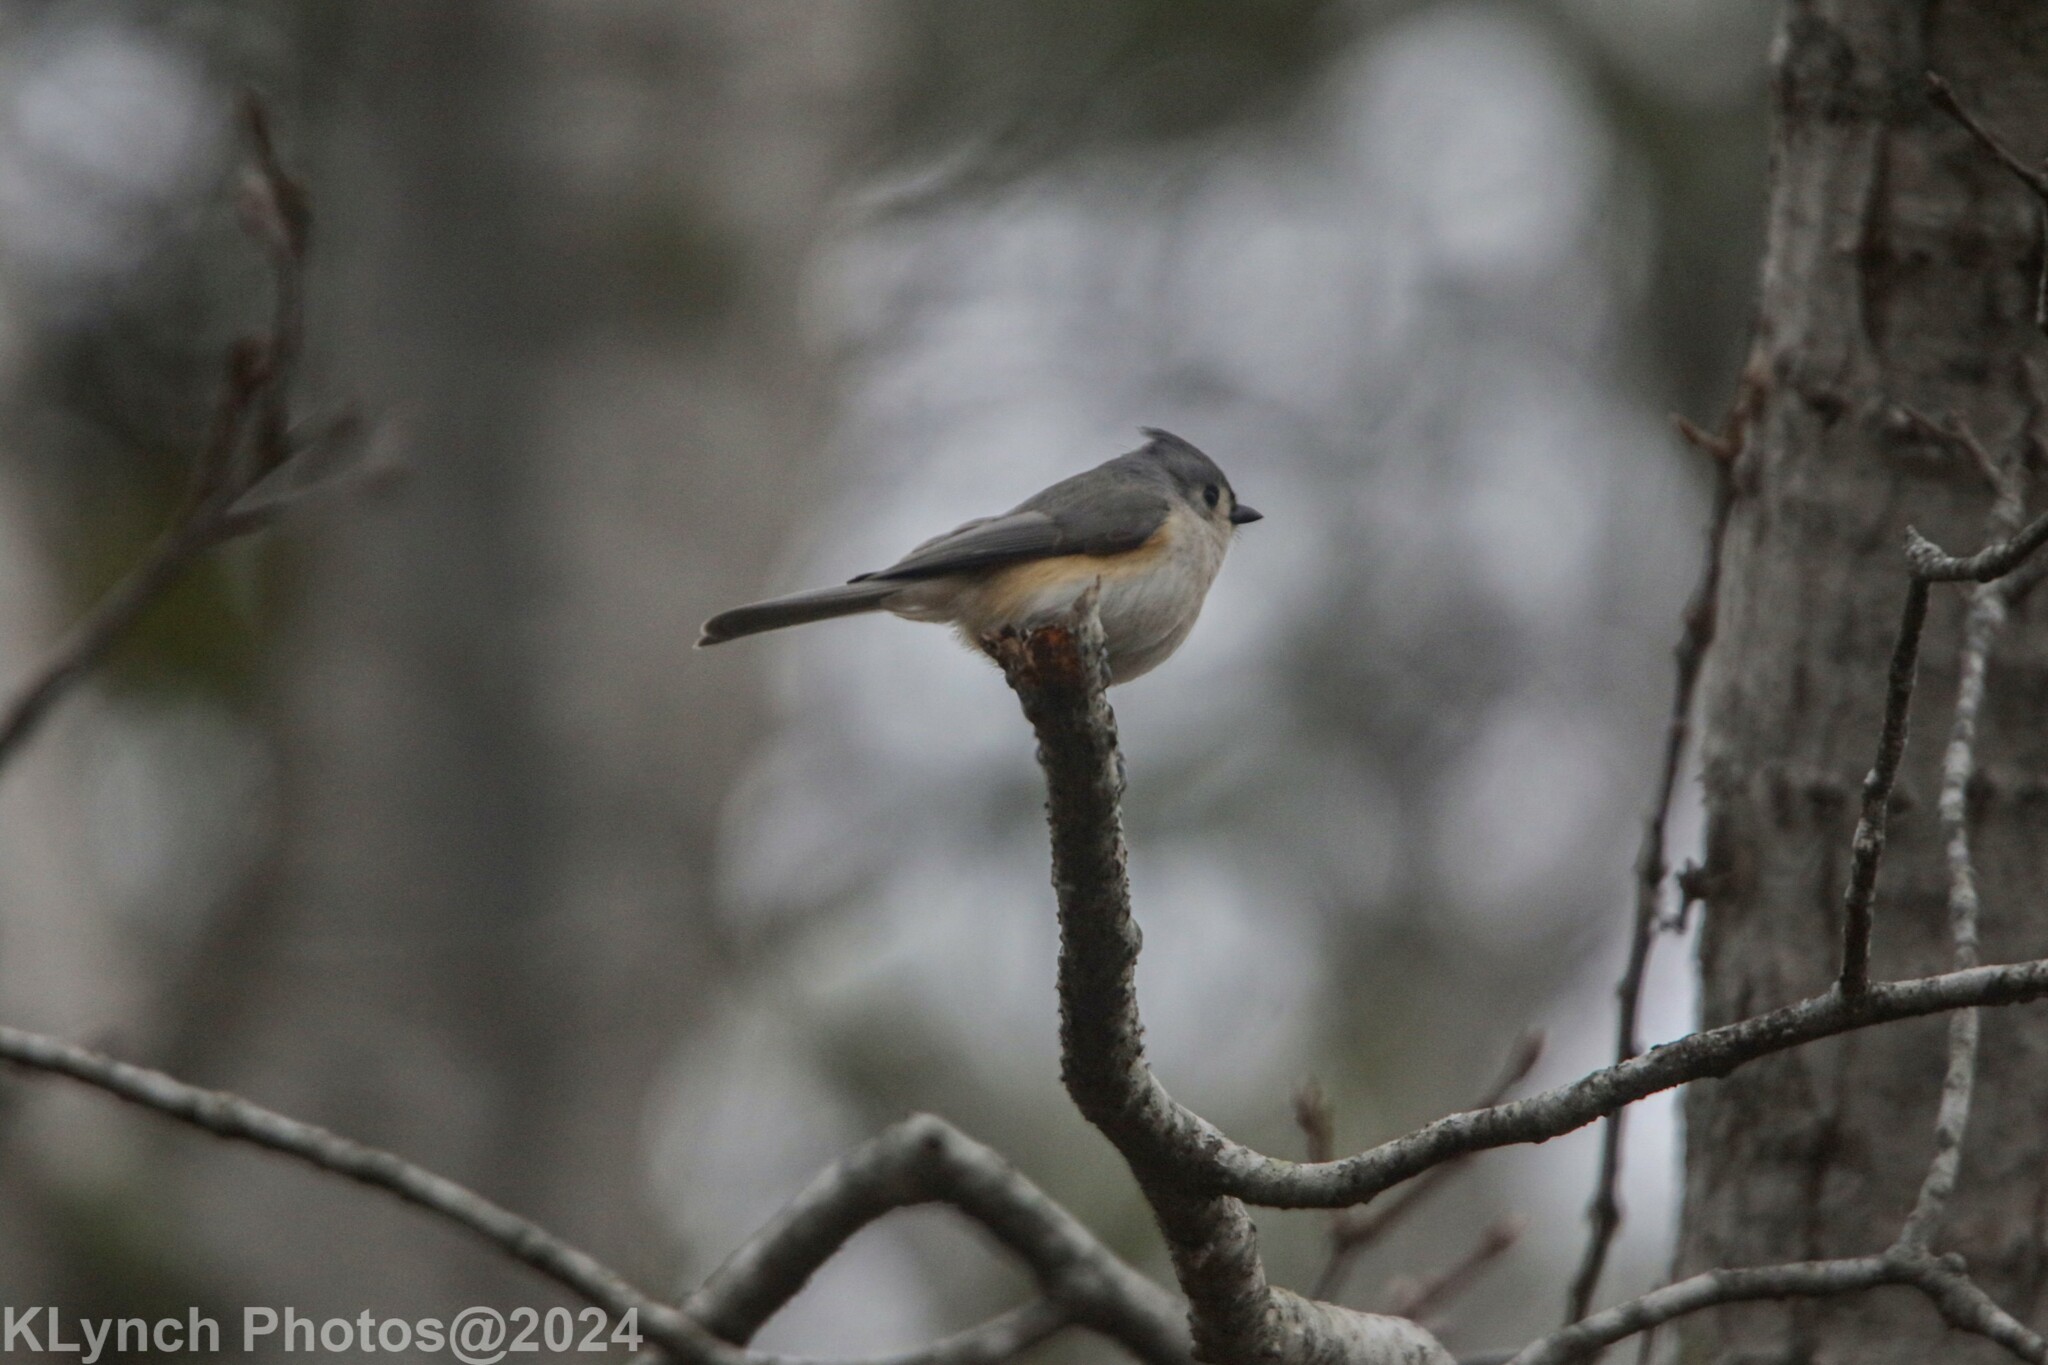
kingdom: Animalia
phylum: Chordata
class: Aves
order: Passeriformes
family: Paridae
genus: Baeolophus
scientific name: Baeolophus bicolor
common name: Tufted titmouse
